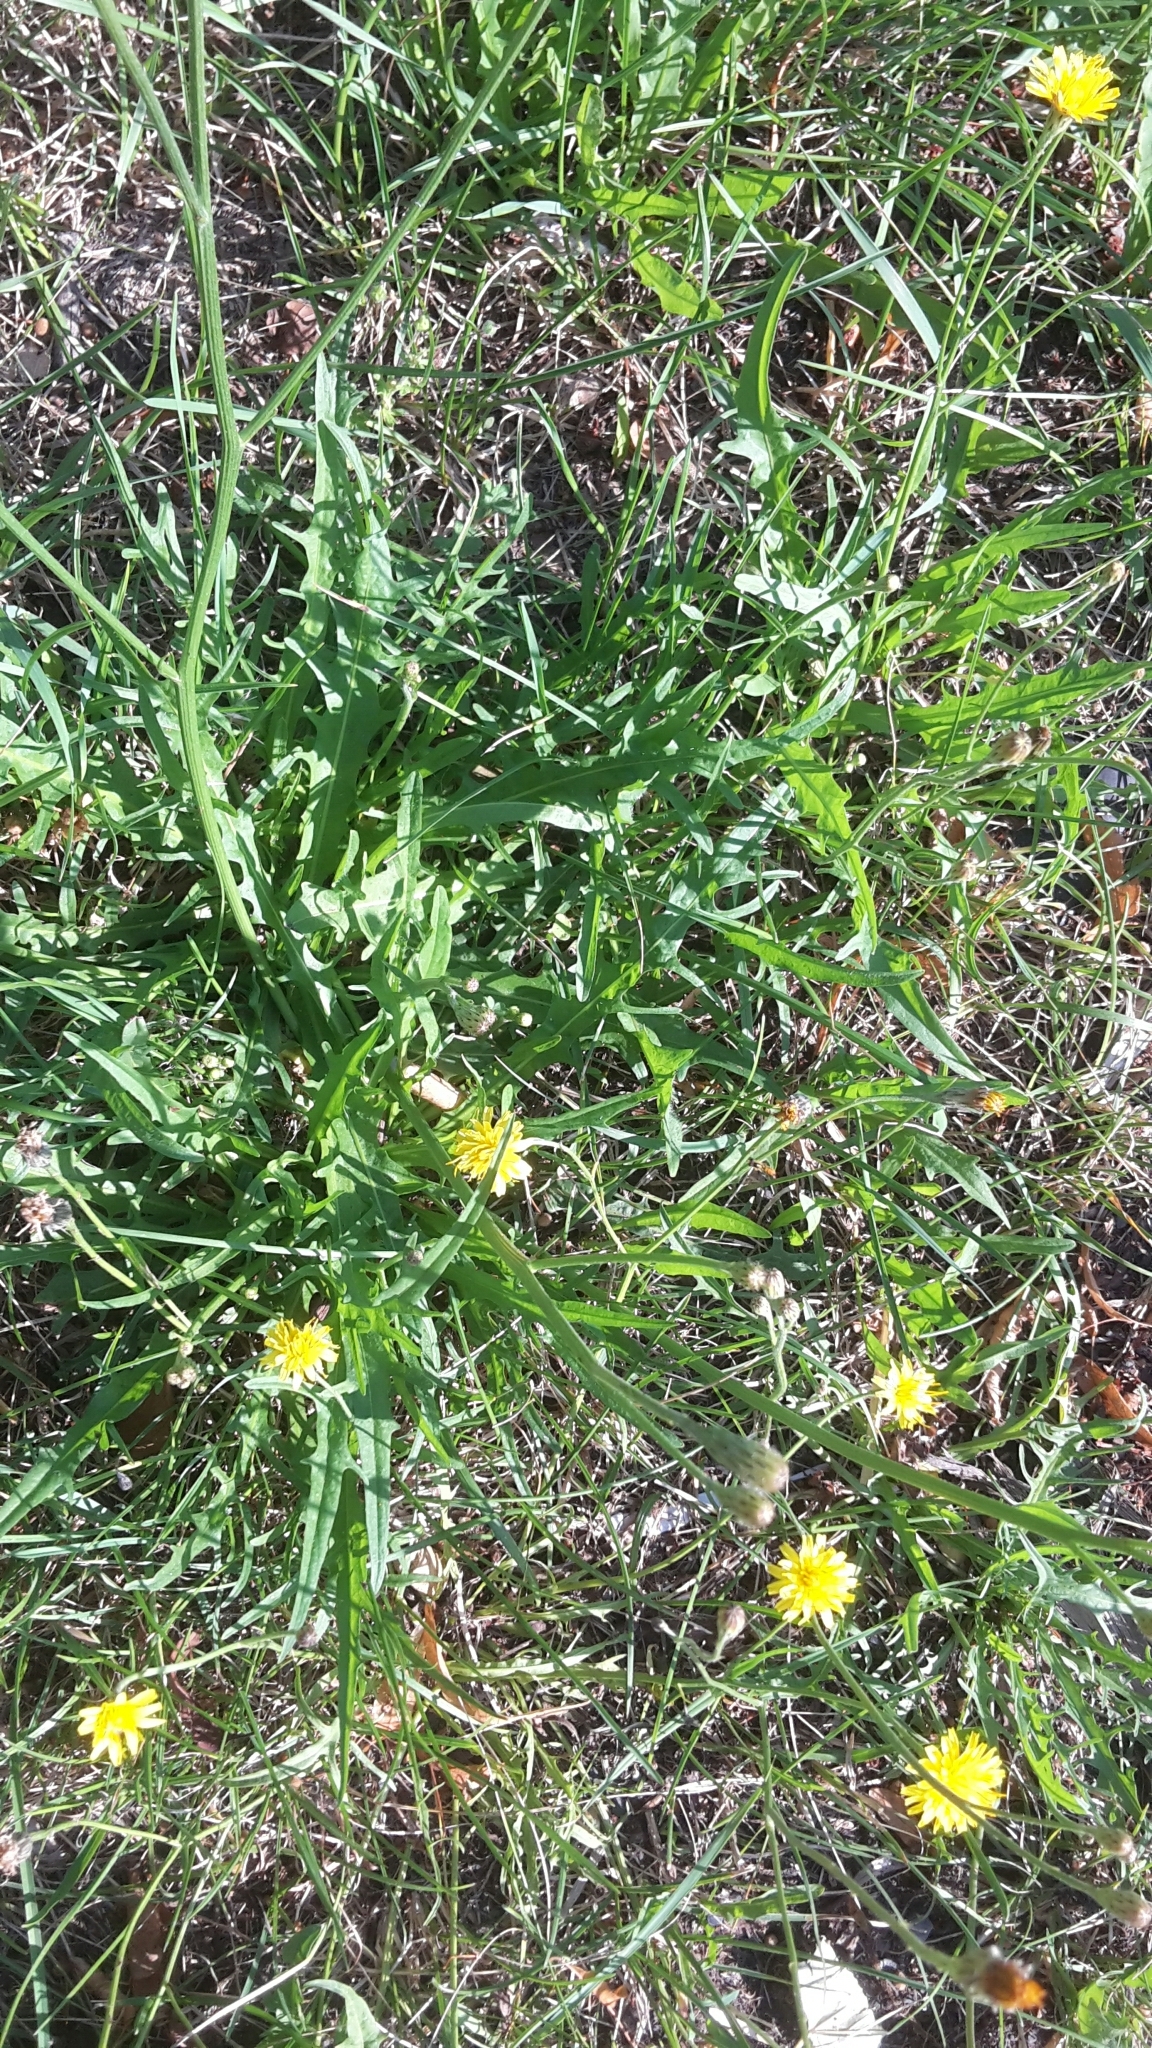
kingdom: Plantae
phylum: Tracheophyta
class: Magnoliopsida
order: Asterales
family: Asteraceae
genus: Scorzoneroides
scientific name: Scorzoneroides autumnalis
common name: Autumn hawkbit
